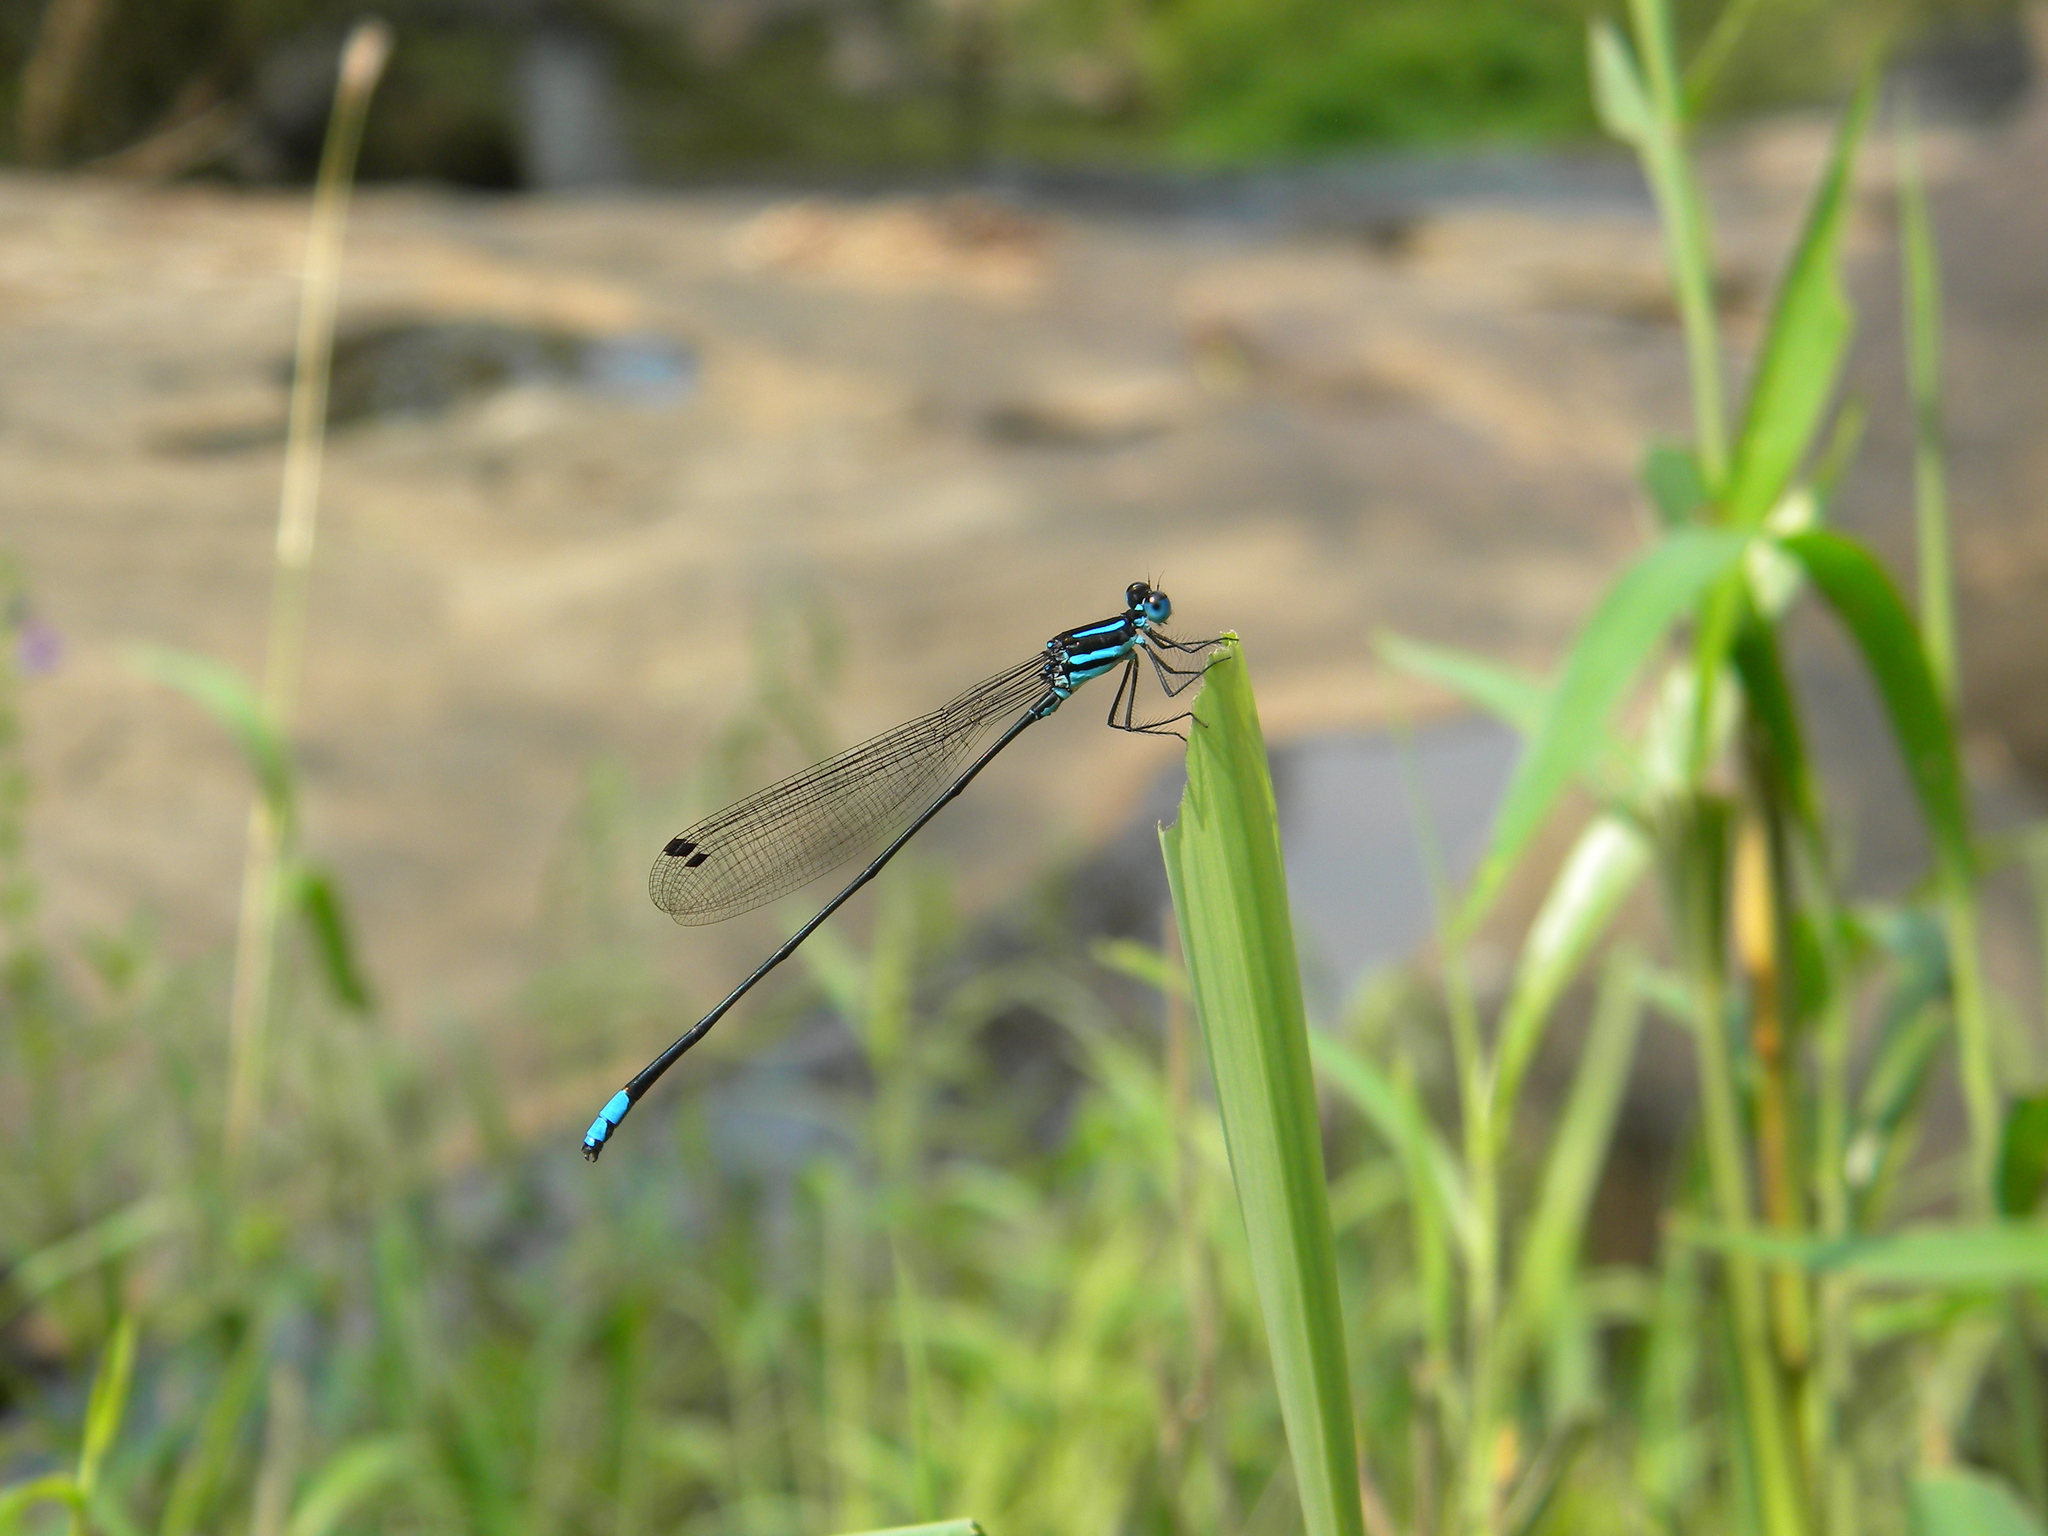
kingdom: Animalia
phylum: Arthropoda
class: Insecta
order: Odonata
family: Platycnemididae
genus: Esme
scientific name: Esme mudiensis
